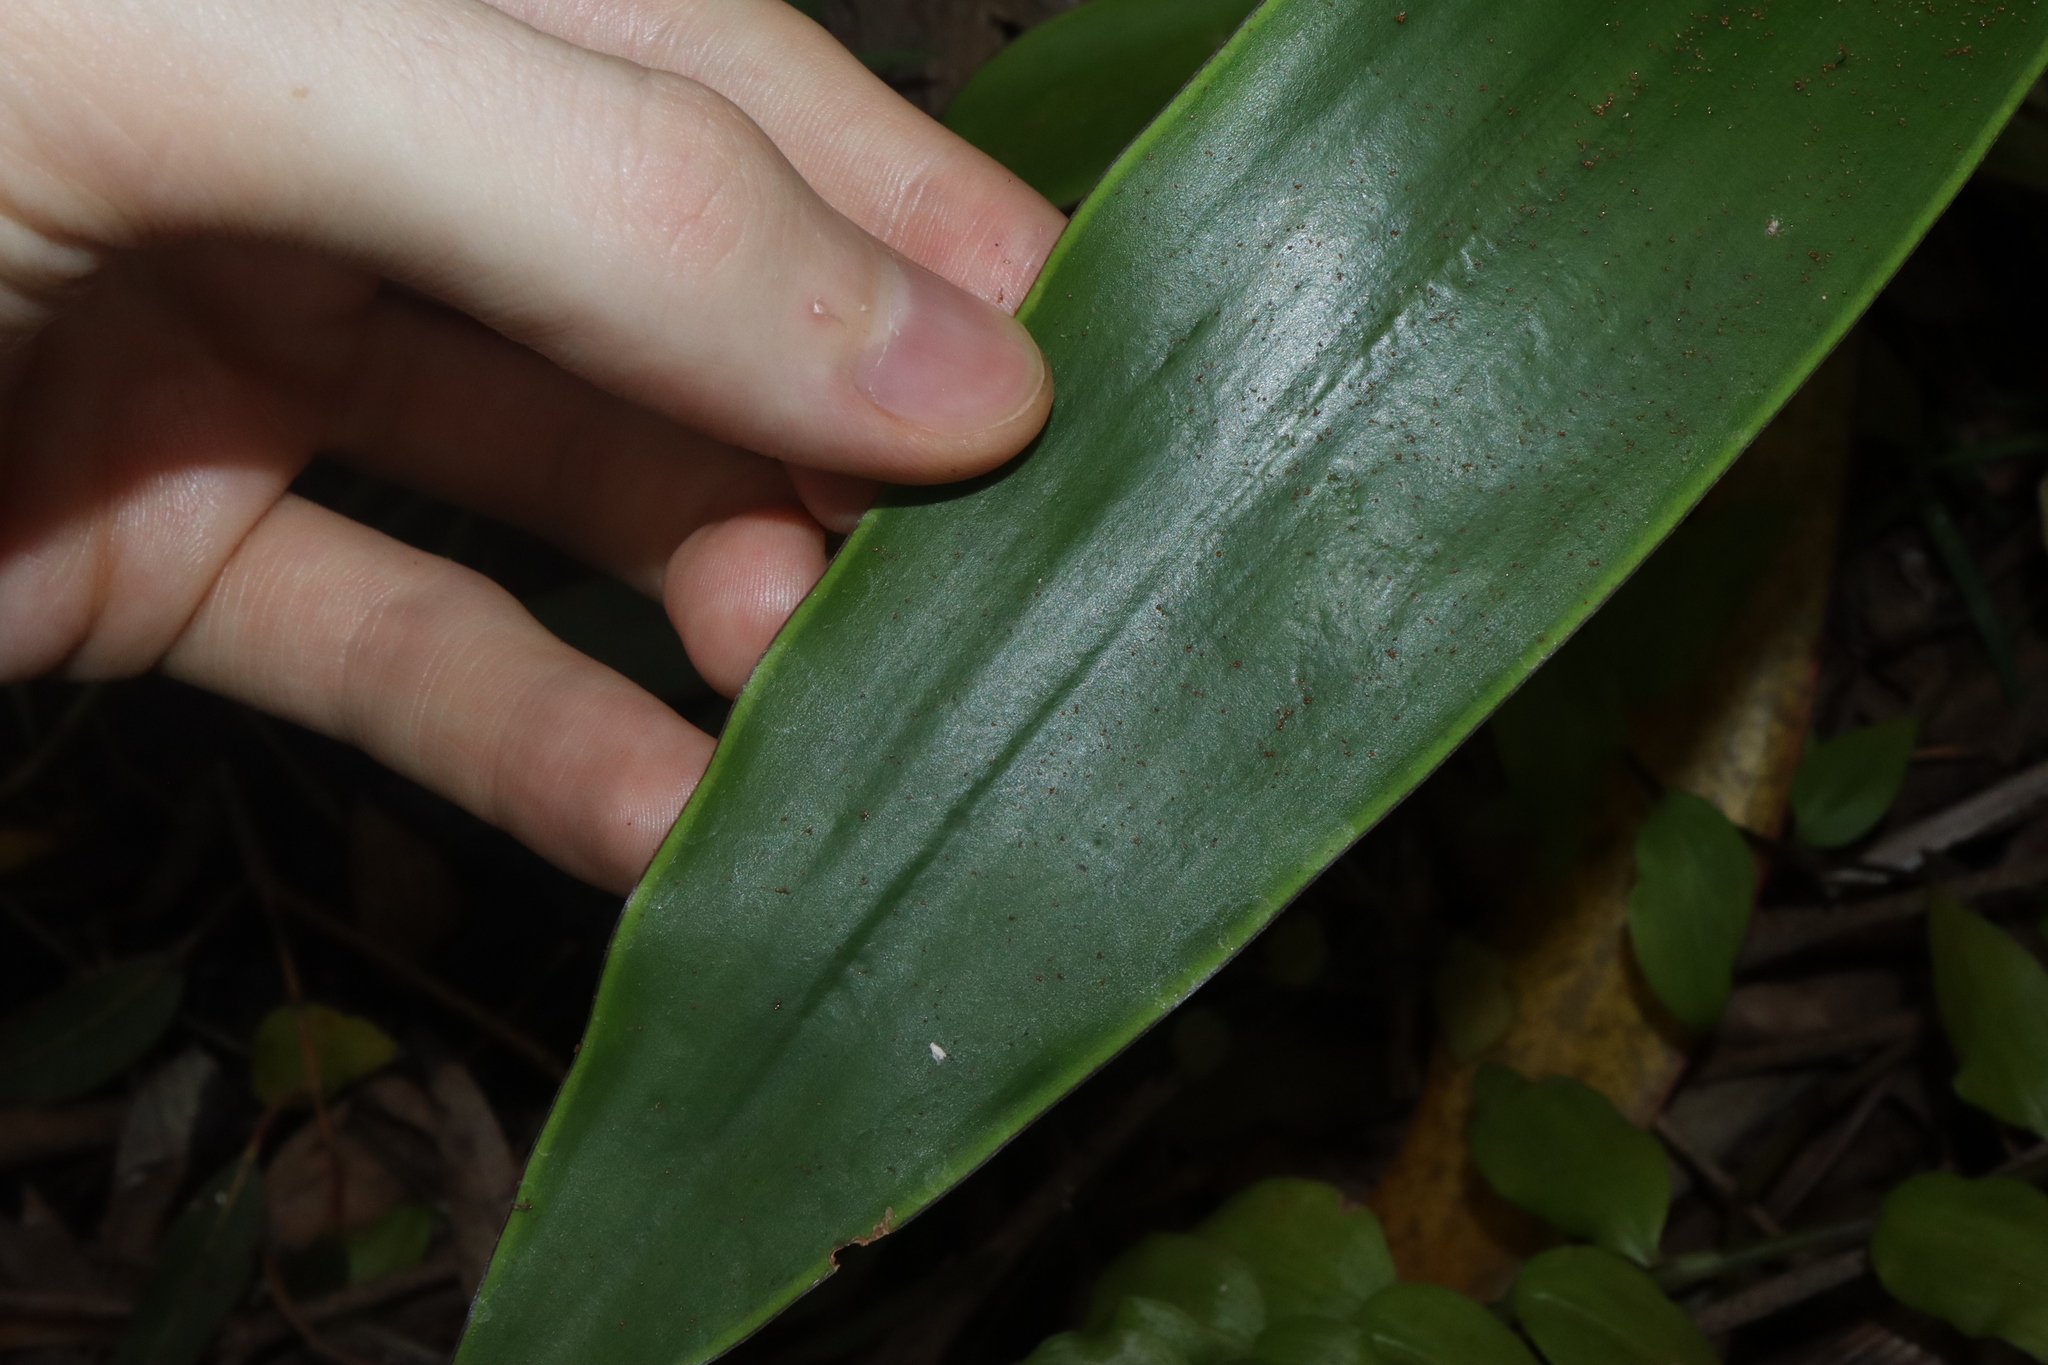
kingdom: Plantae
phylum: Tracheophyta
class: Liliopsida
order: Commelinales
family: Commelinaceae
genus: Callisia
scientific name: Callisia fragrans
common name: Basketplant
